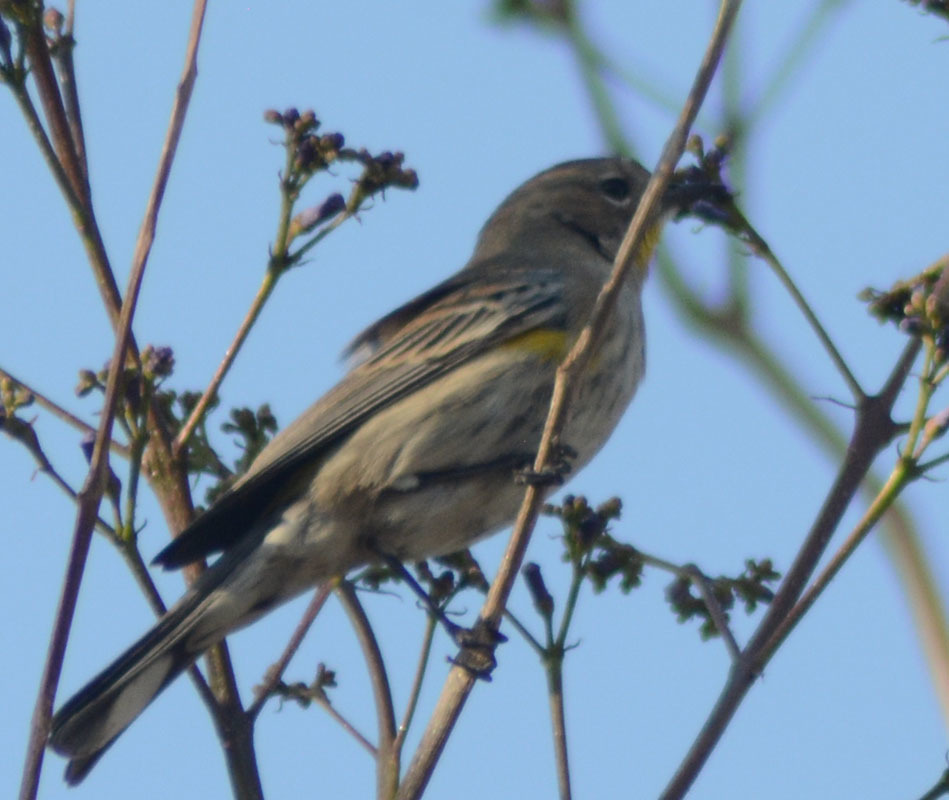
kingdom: Animalia
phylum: Chordata
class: Aves
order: Passeriformes
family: Parulidae
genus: Setophaga
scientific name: Setophaga auduboni
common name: Audubon's warbler
